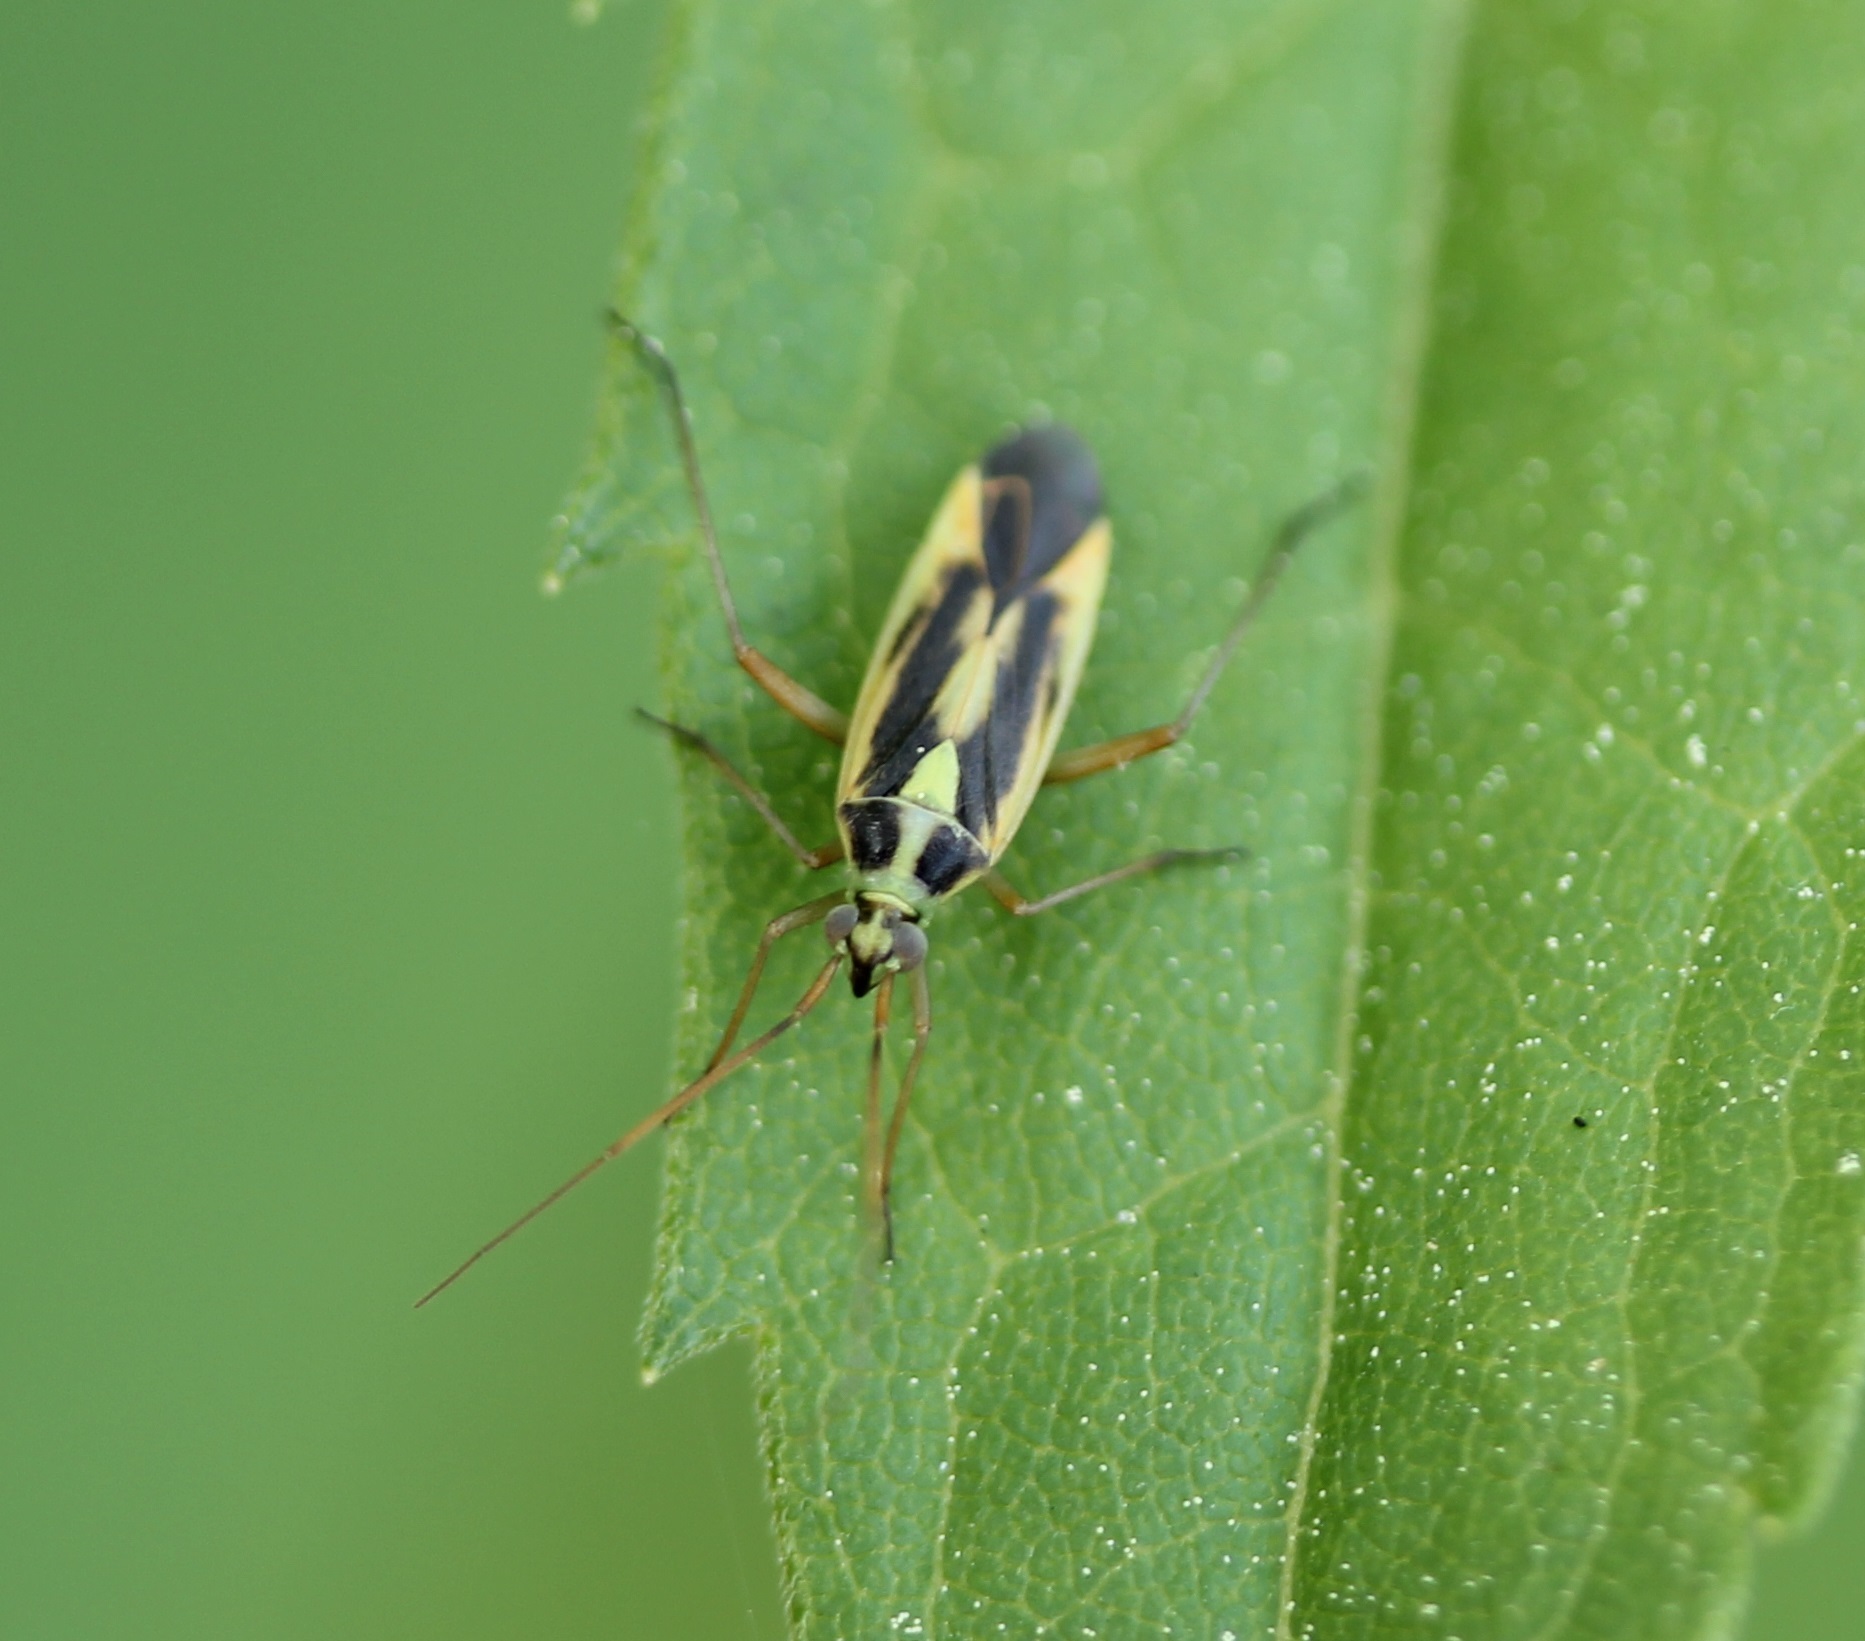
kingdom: Animalia
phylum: Arthropoda
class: Insecta
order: Hemiptera
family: Miridae
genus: Stenotus
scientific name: Stenotus binotatus
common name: Plant bug
